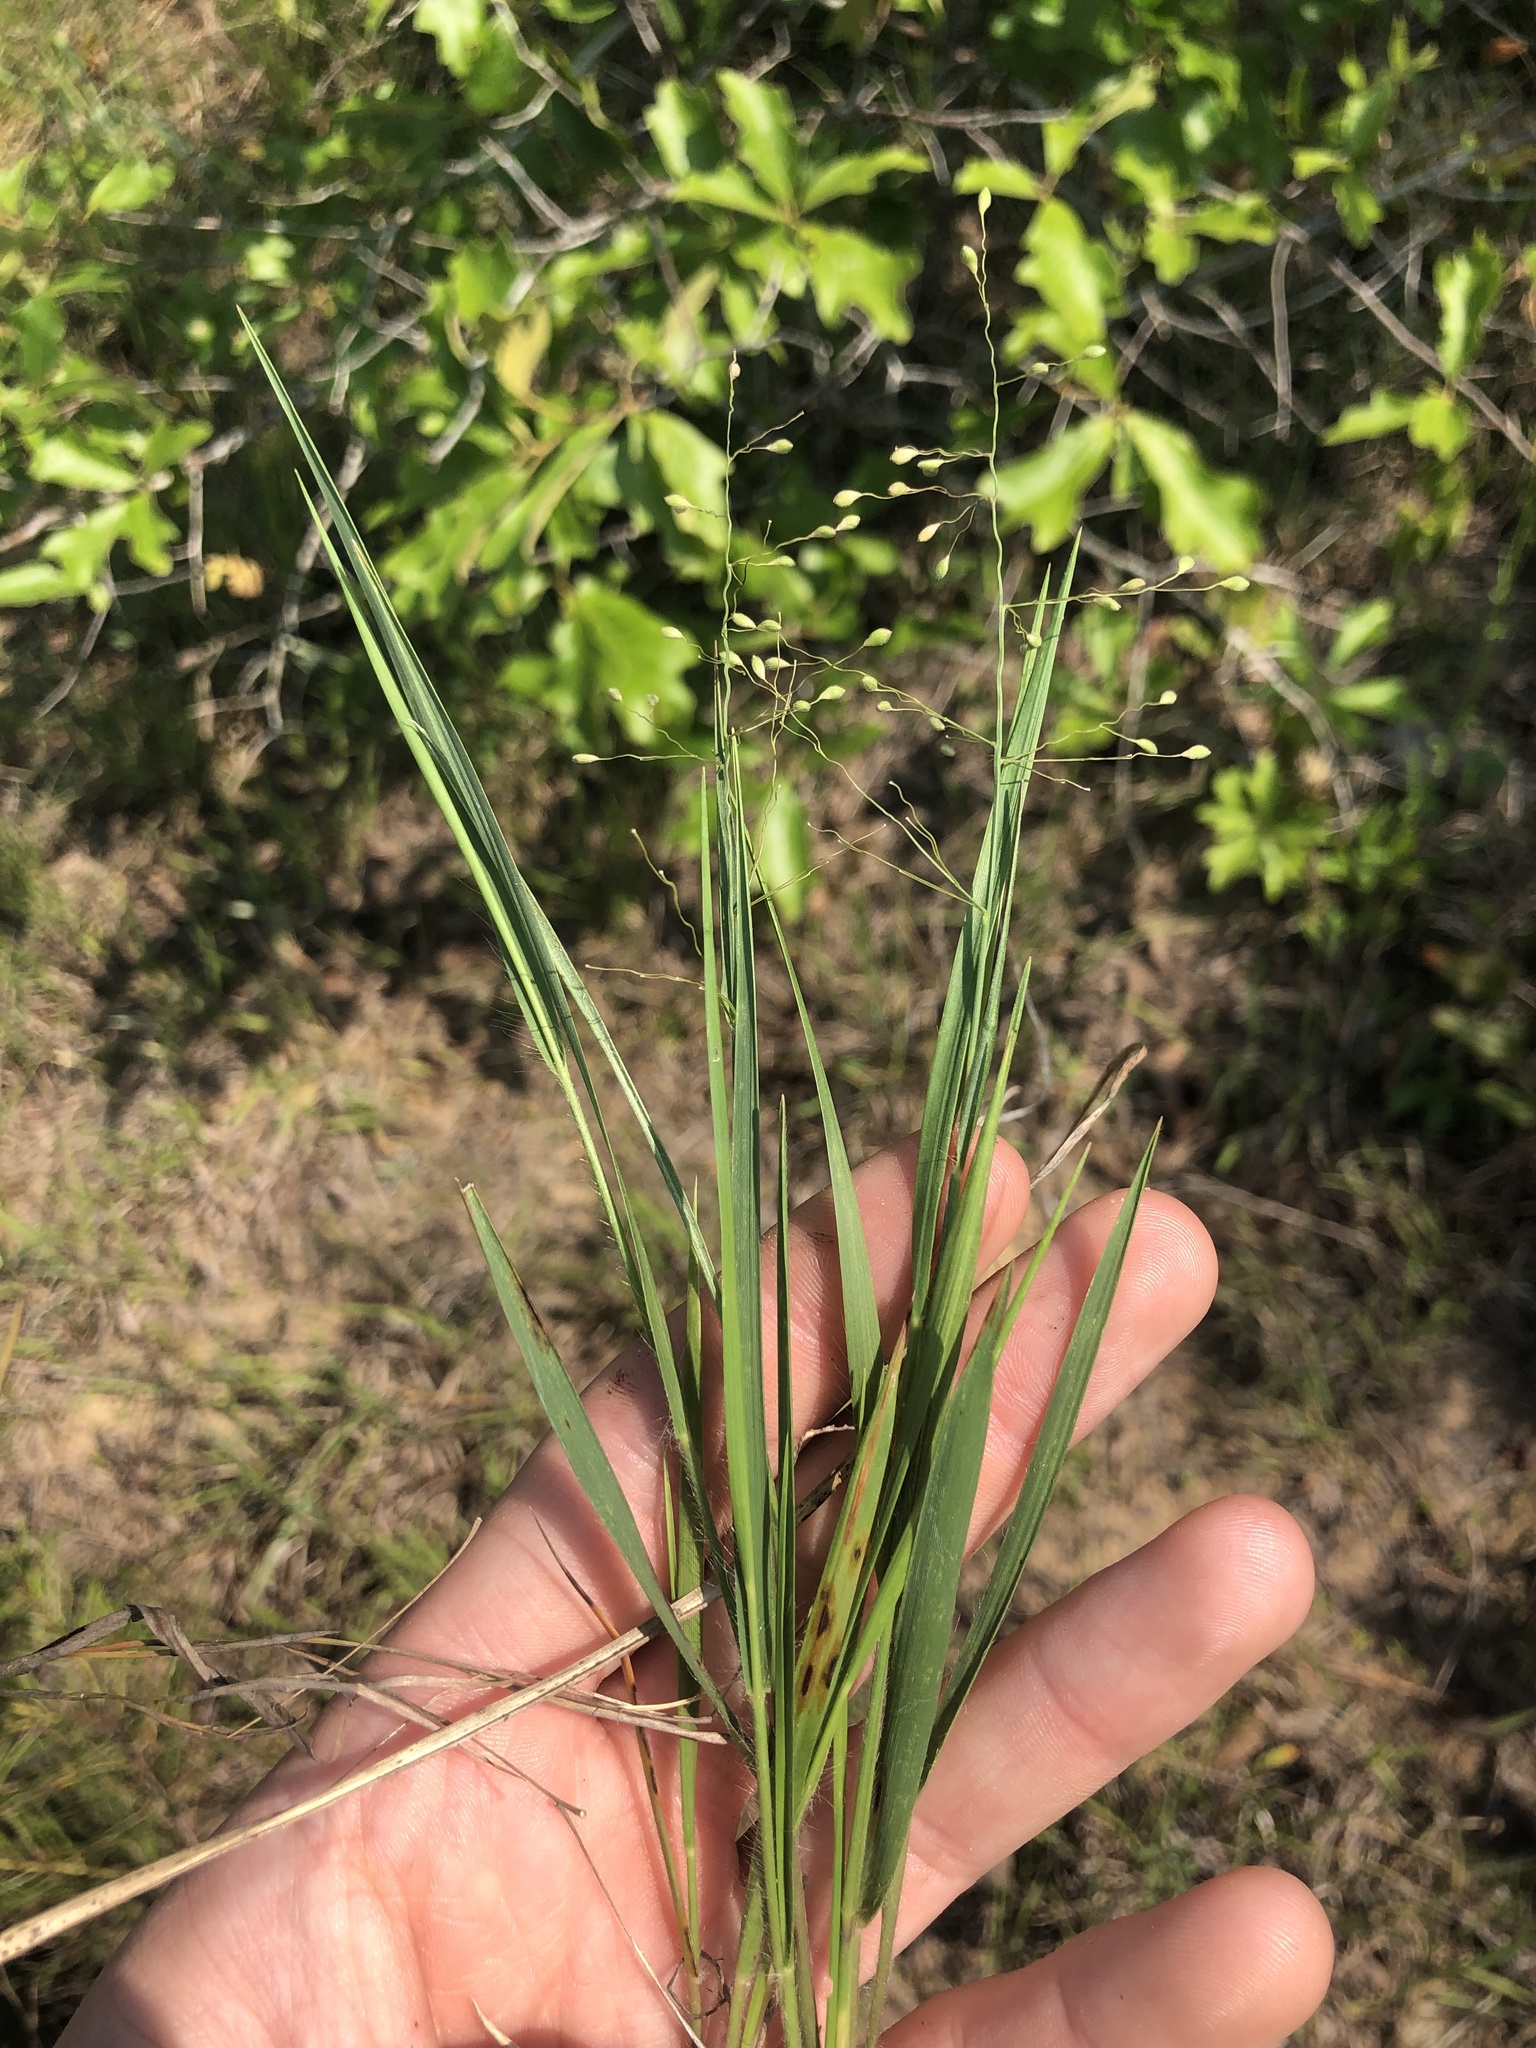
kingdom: Plantae
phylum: Tracheophyta
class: Liliopsida
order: Poales
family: Poaceae
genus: Dichanthelium
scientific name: Dichanthelium angustifolium
